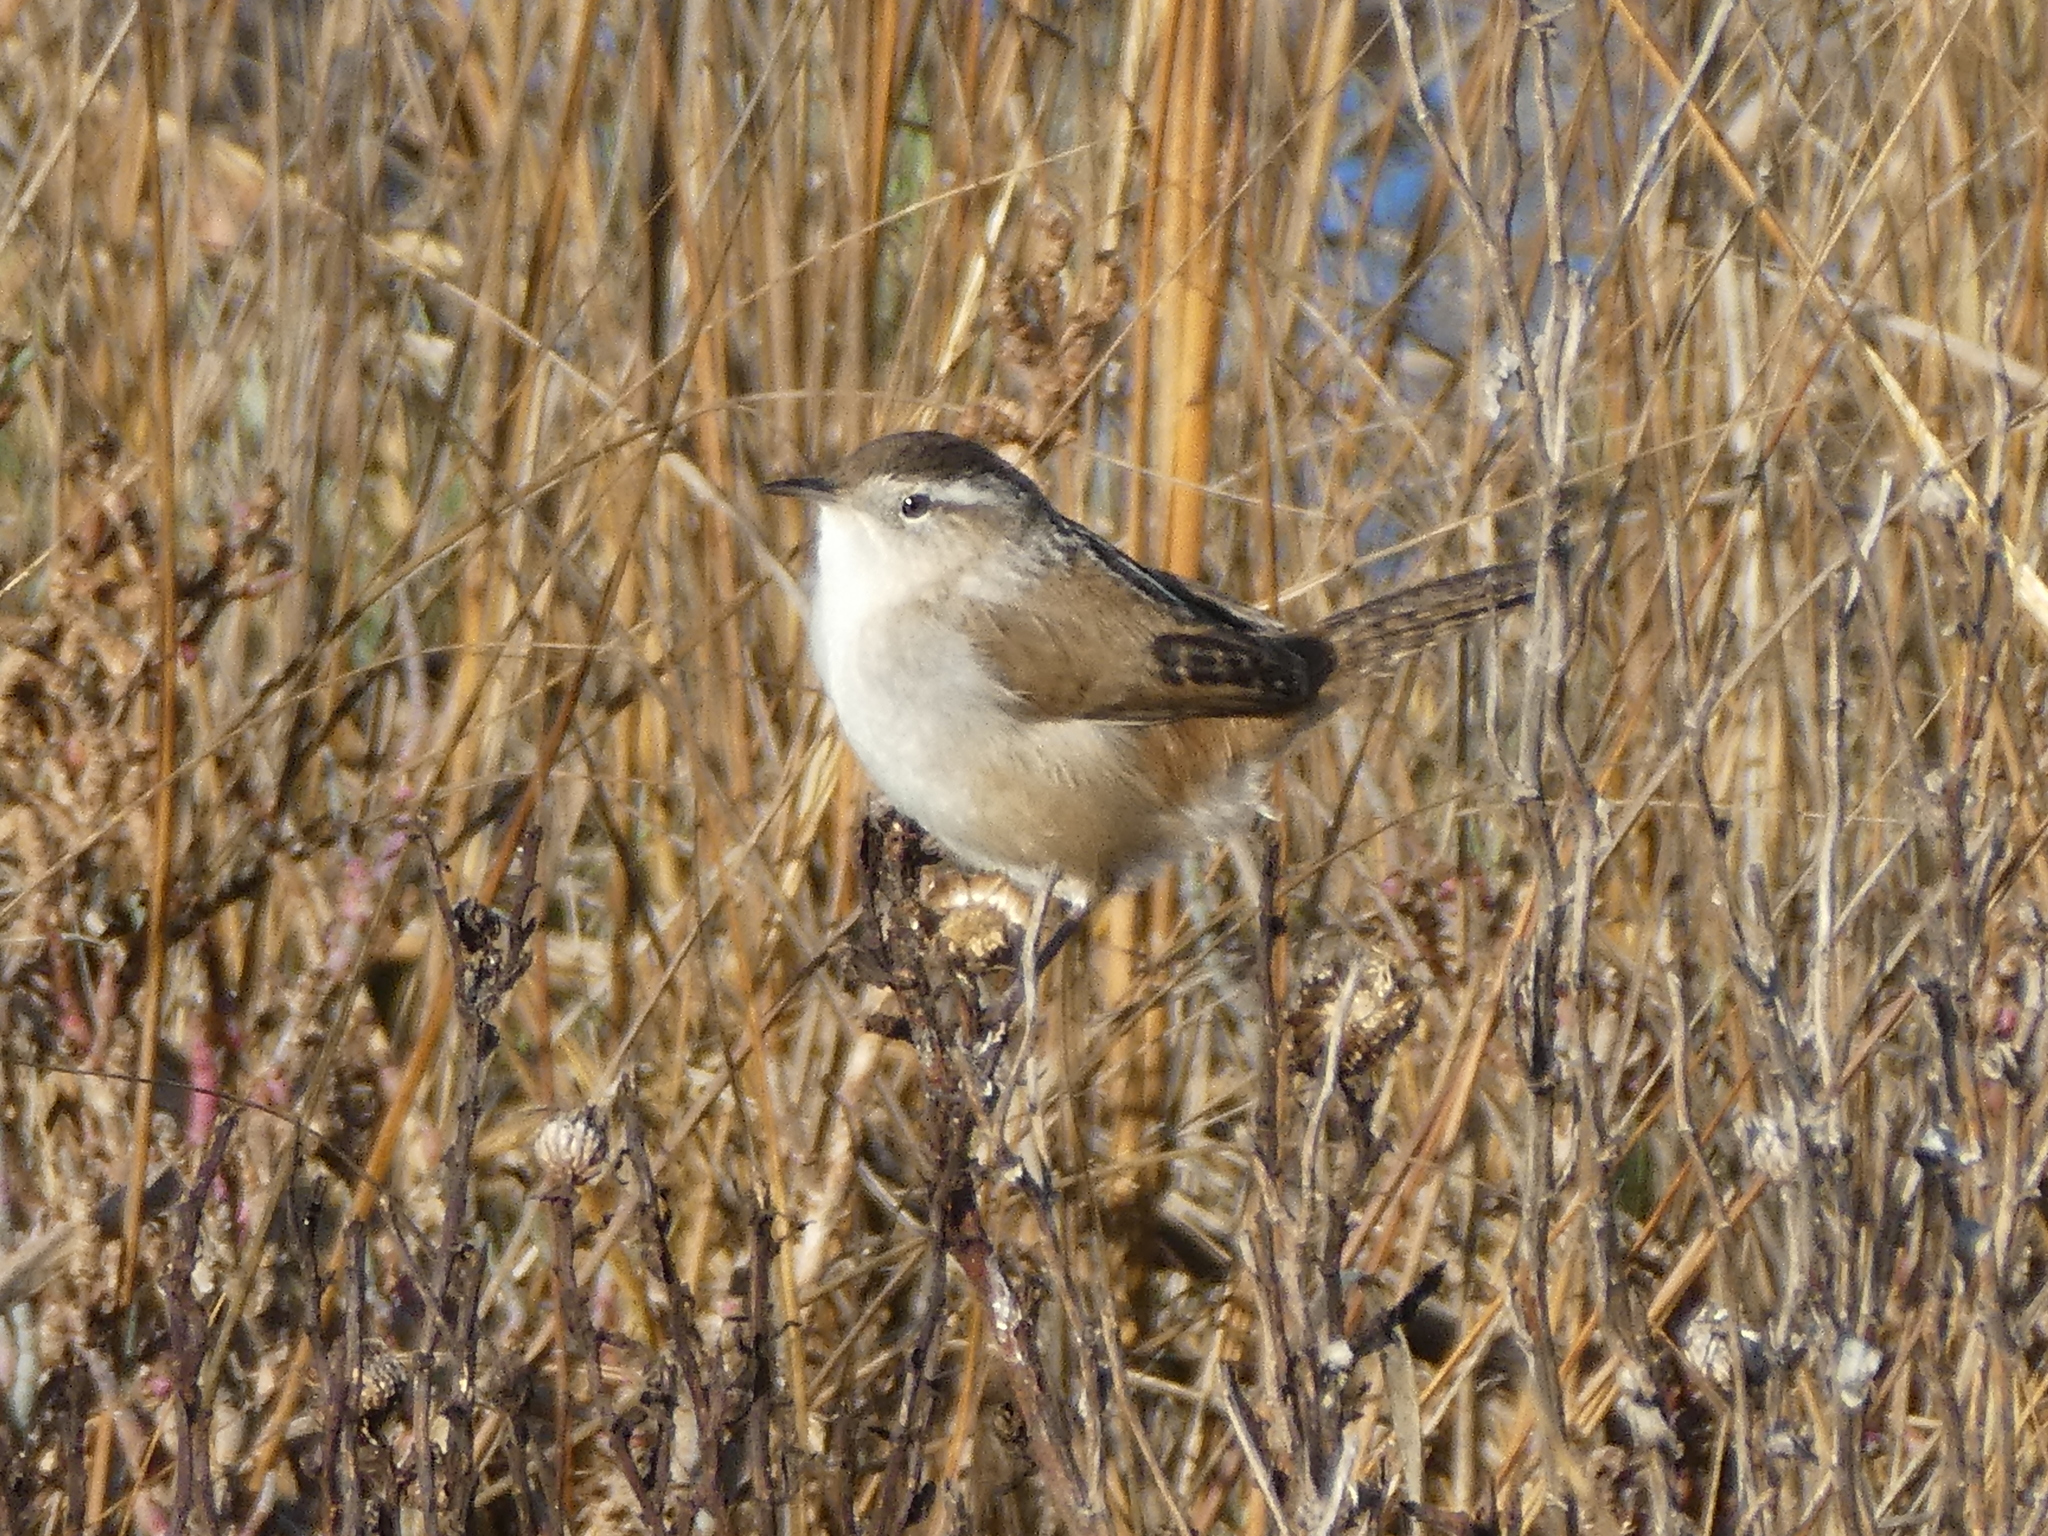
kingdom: Animalia
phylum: Chordata
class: Aves
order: Passeriformes
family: Troglodytidae
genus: Cistothorus
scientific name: Cistothorus palustris
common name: Marsh wren
